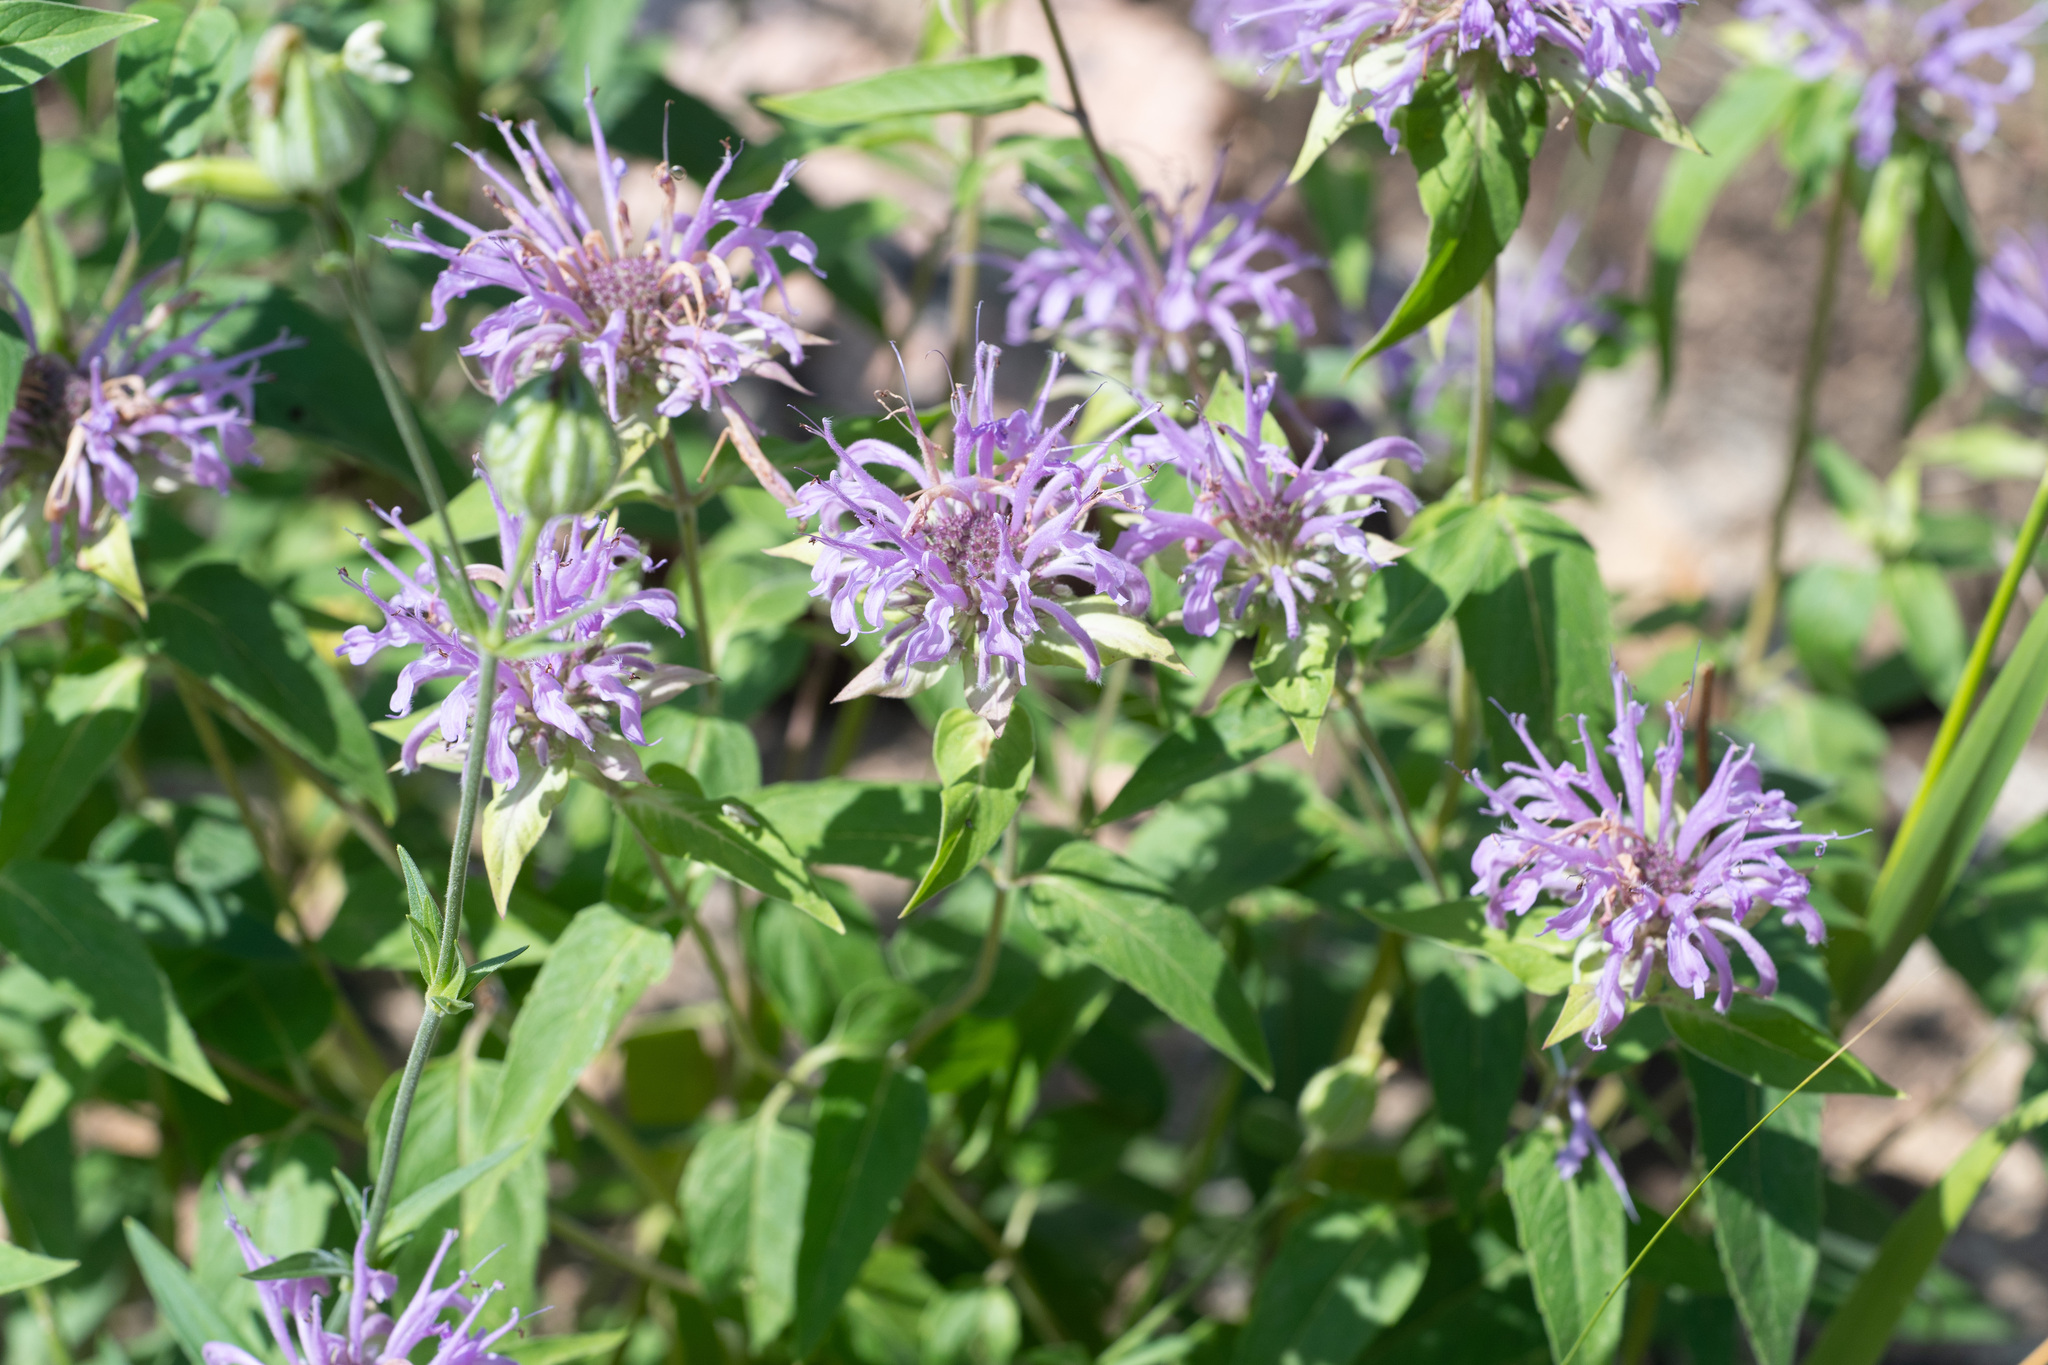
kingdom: Plantae
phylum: Tracheophyta
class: Magnoliopsida
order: Lamiales
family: Lamiaceae
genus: Monarda
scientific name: Monarda fistulosa
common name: Purple beebalm
